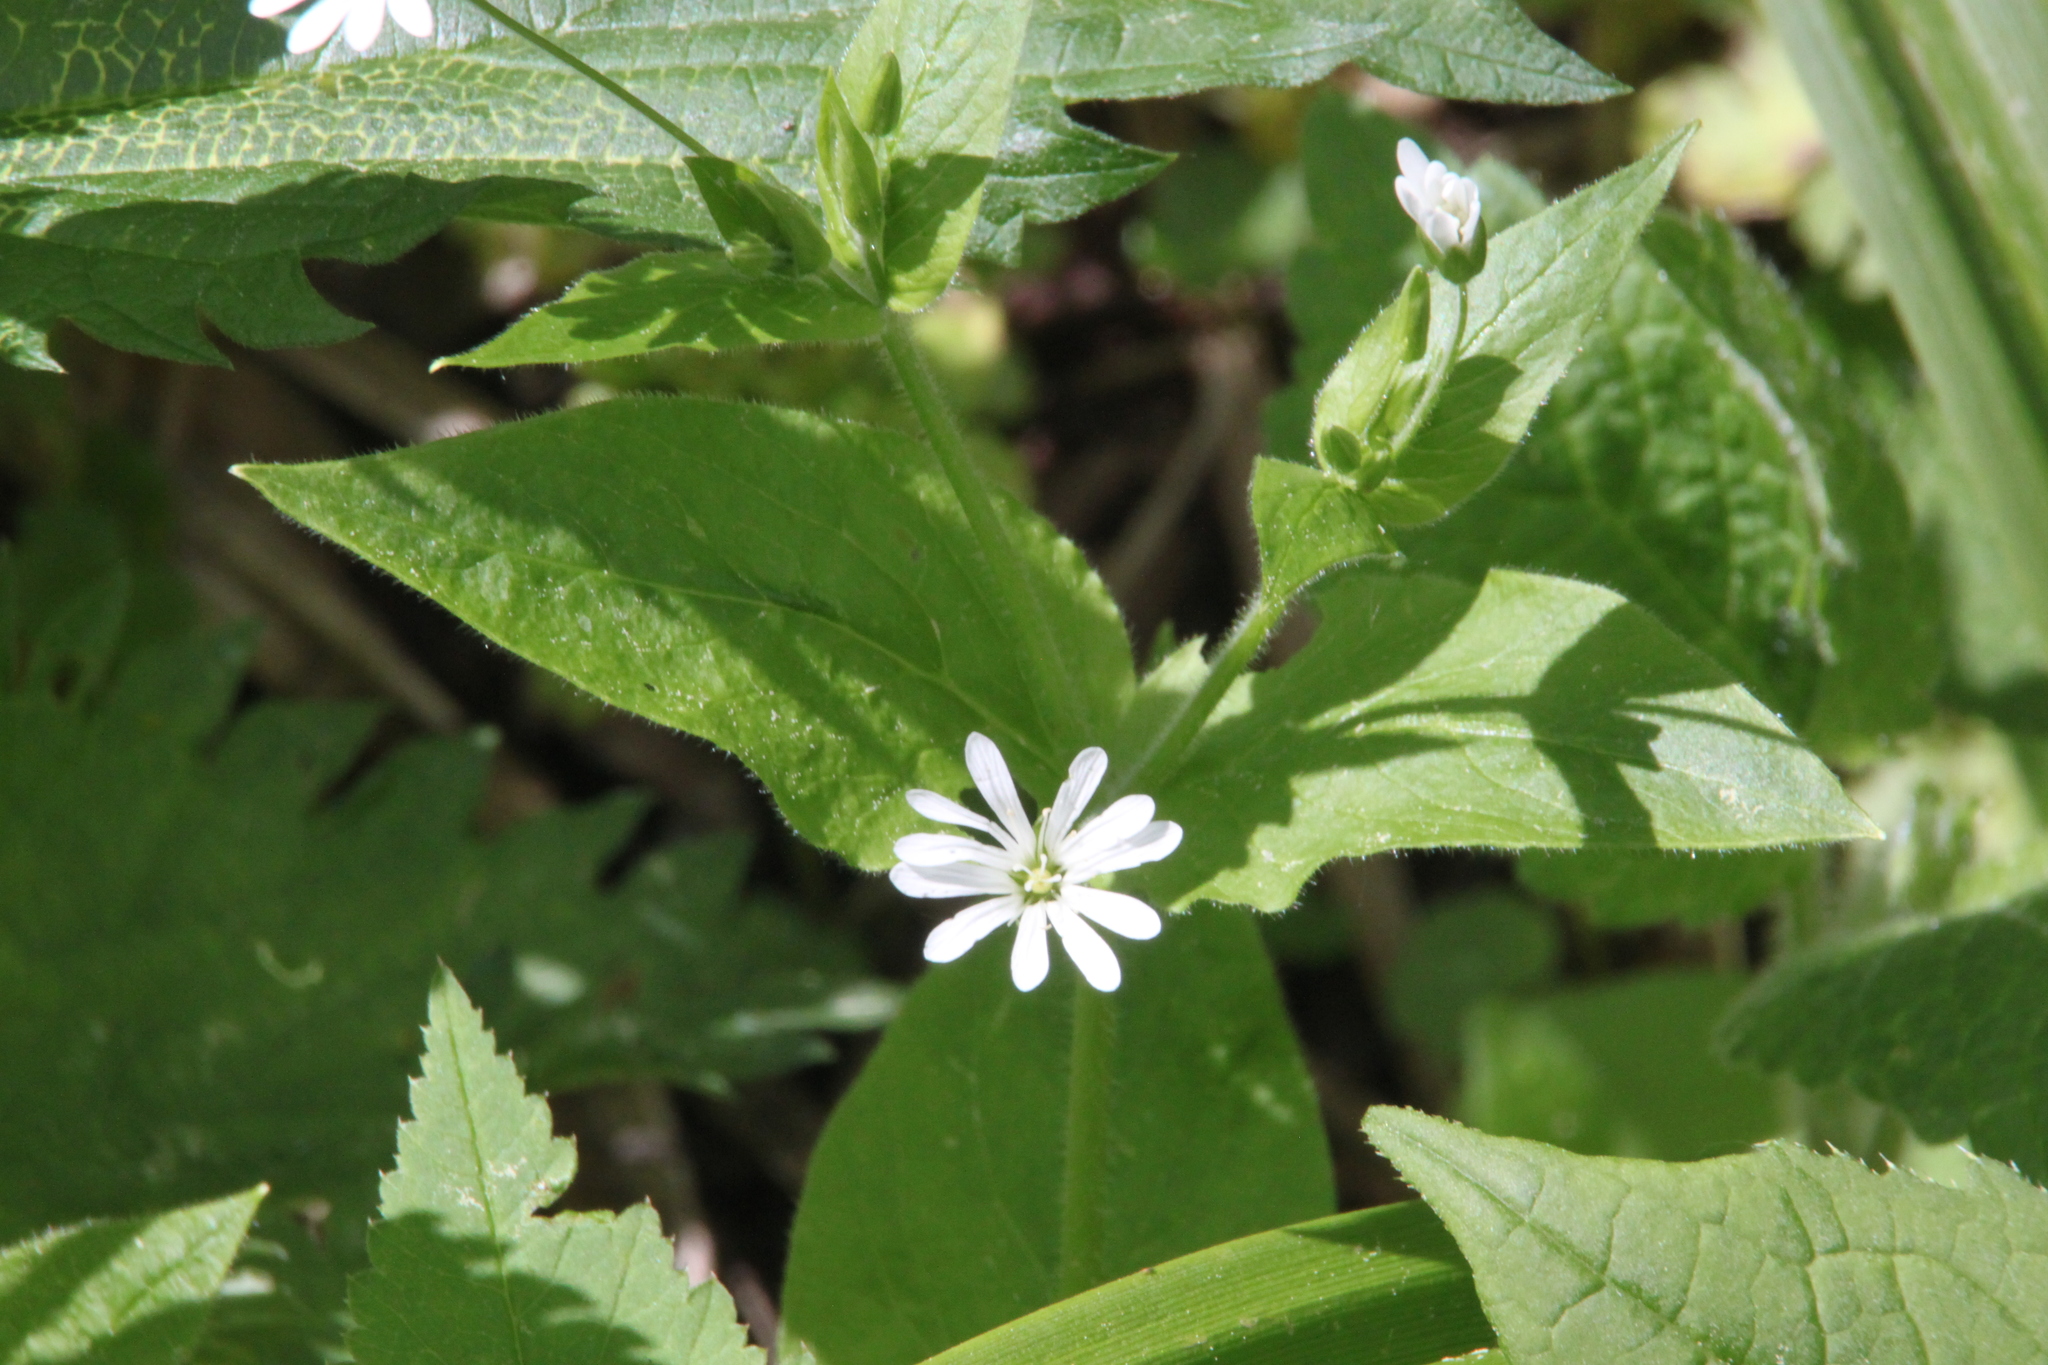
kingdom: Plantae
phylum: Tracheophyta
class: Magnoliopsida
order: Caryophyllales
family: Caryophyllaceae
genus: Stellaria
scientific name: Stellaria nemorum
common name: Wood stitchwort
